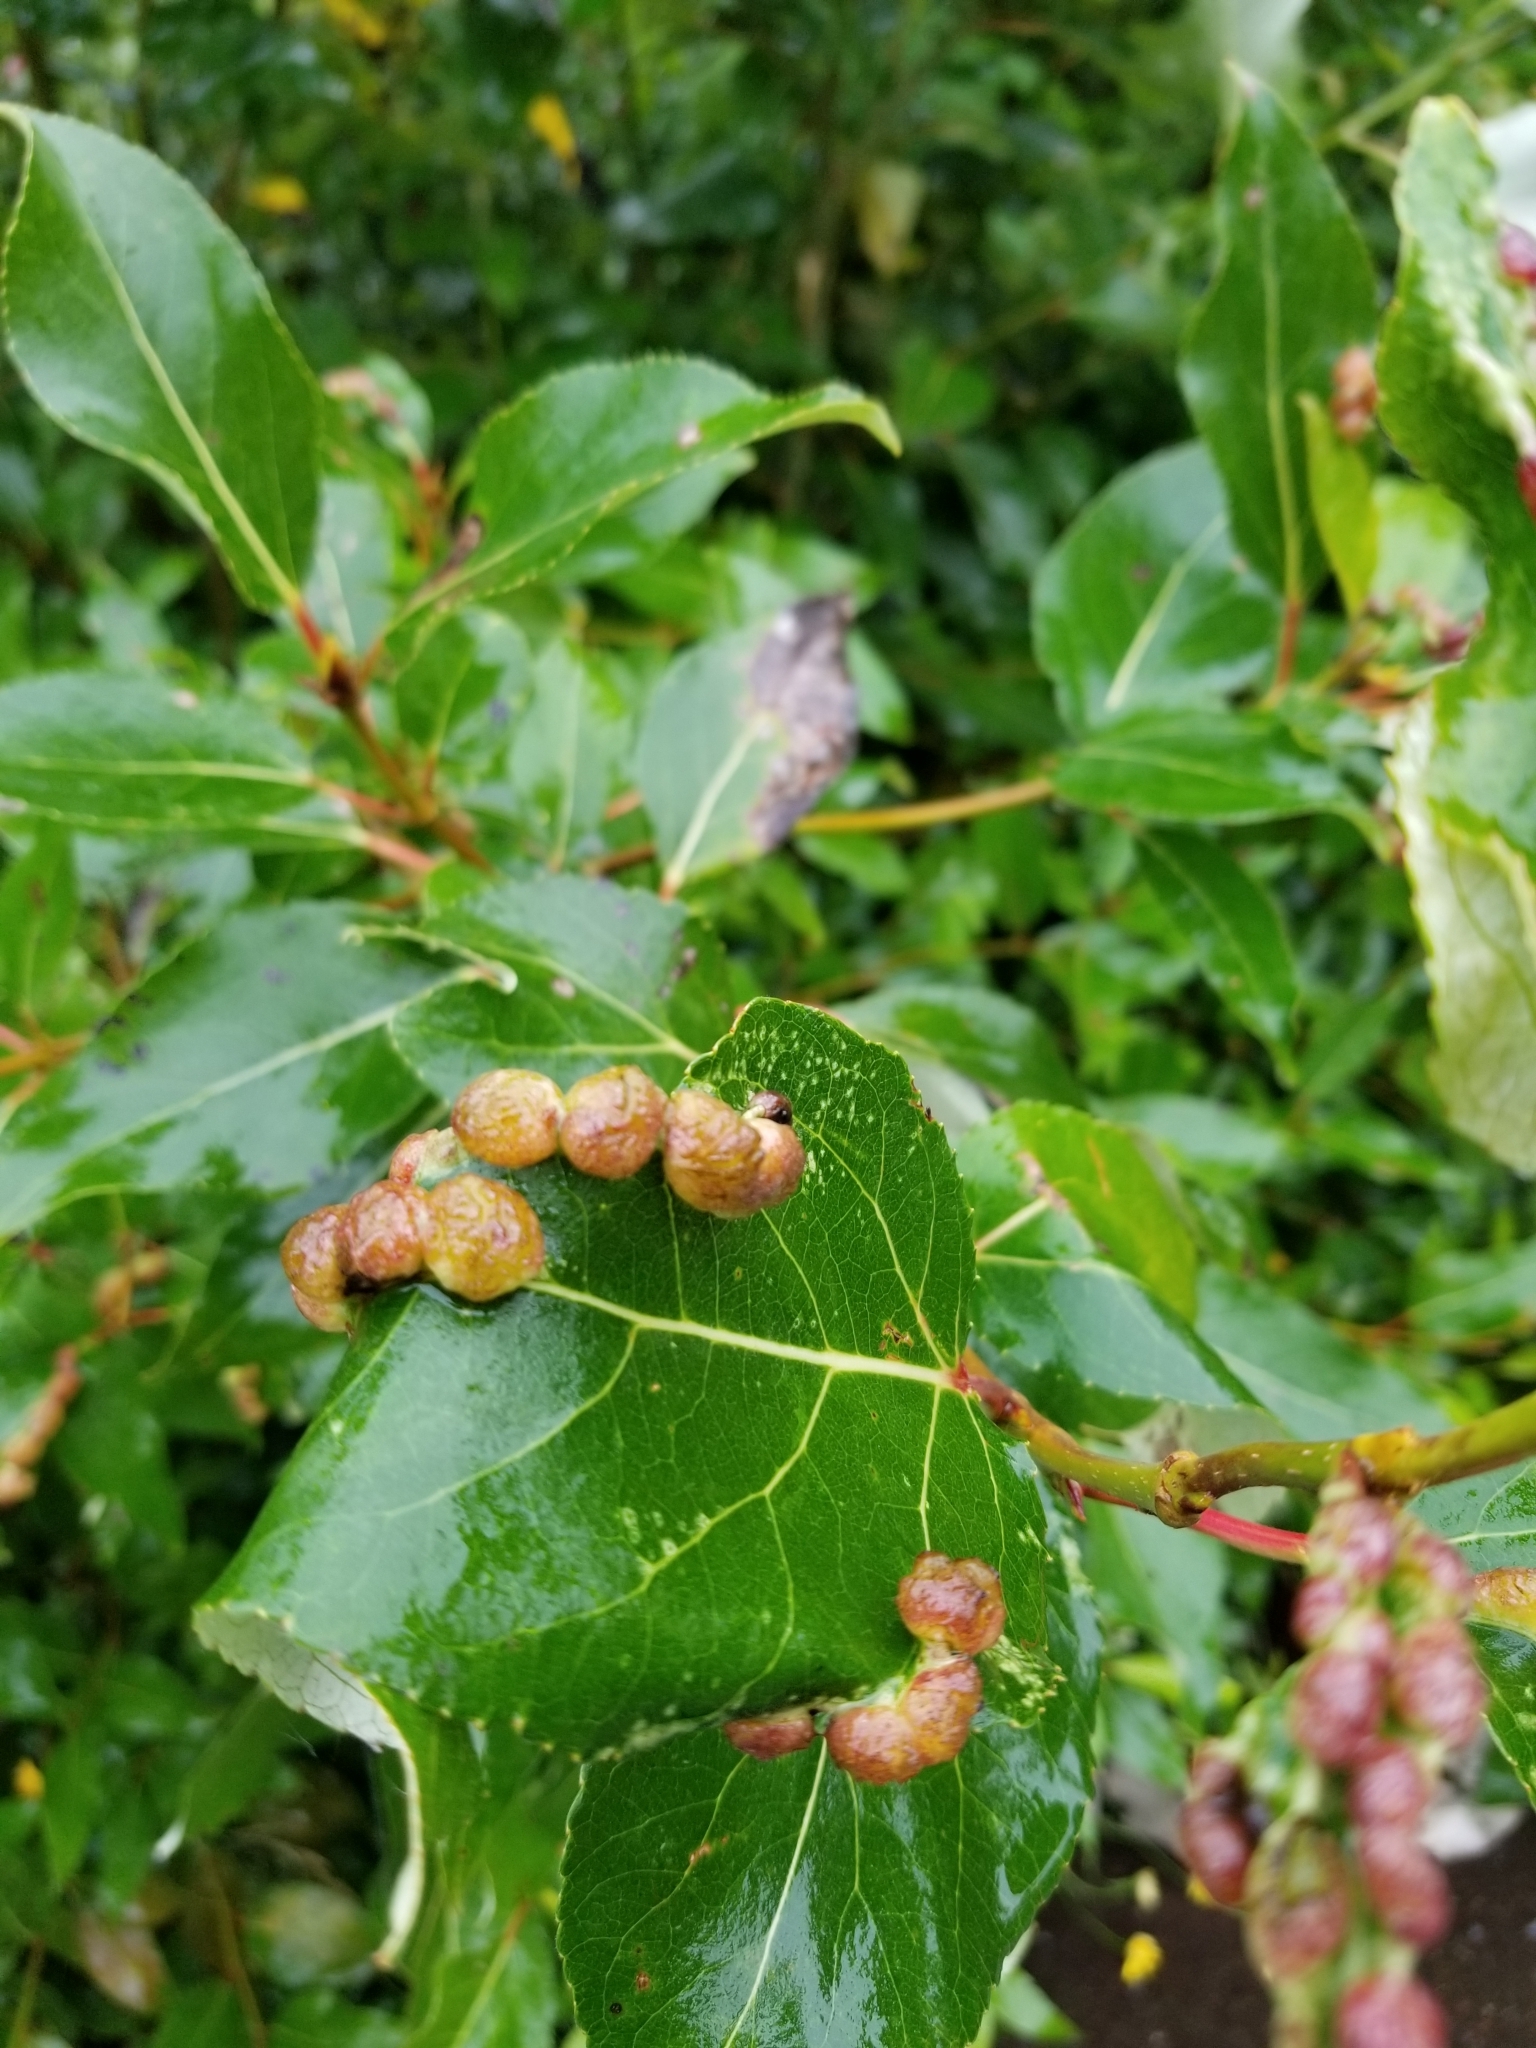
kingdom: Animalia
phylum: Arthropoda
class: Insecta
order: Hemiptera
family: Aphididae
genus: Thecabius
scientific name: Thecabius populimonilis
